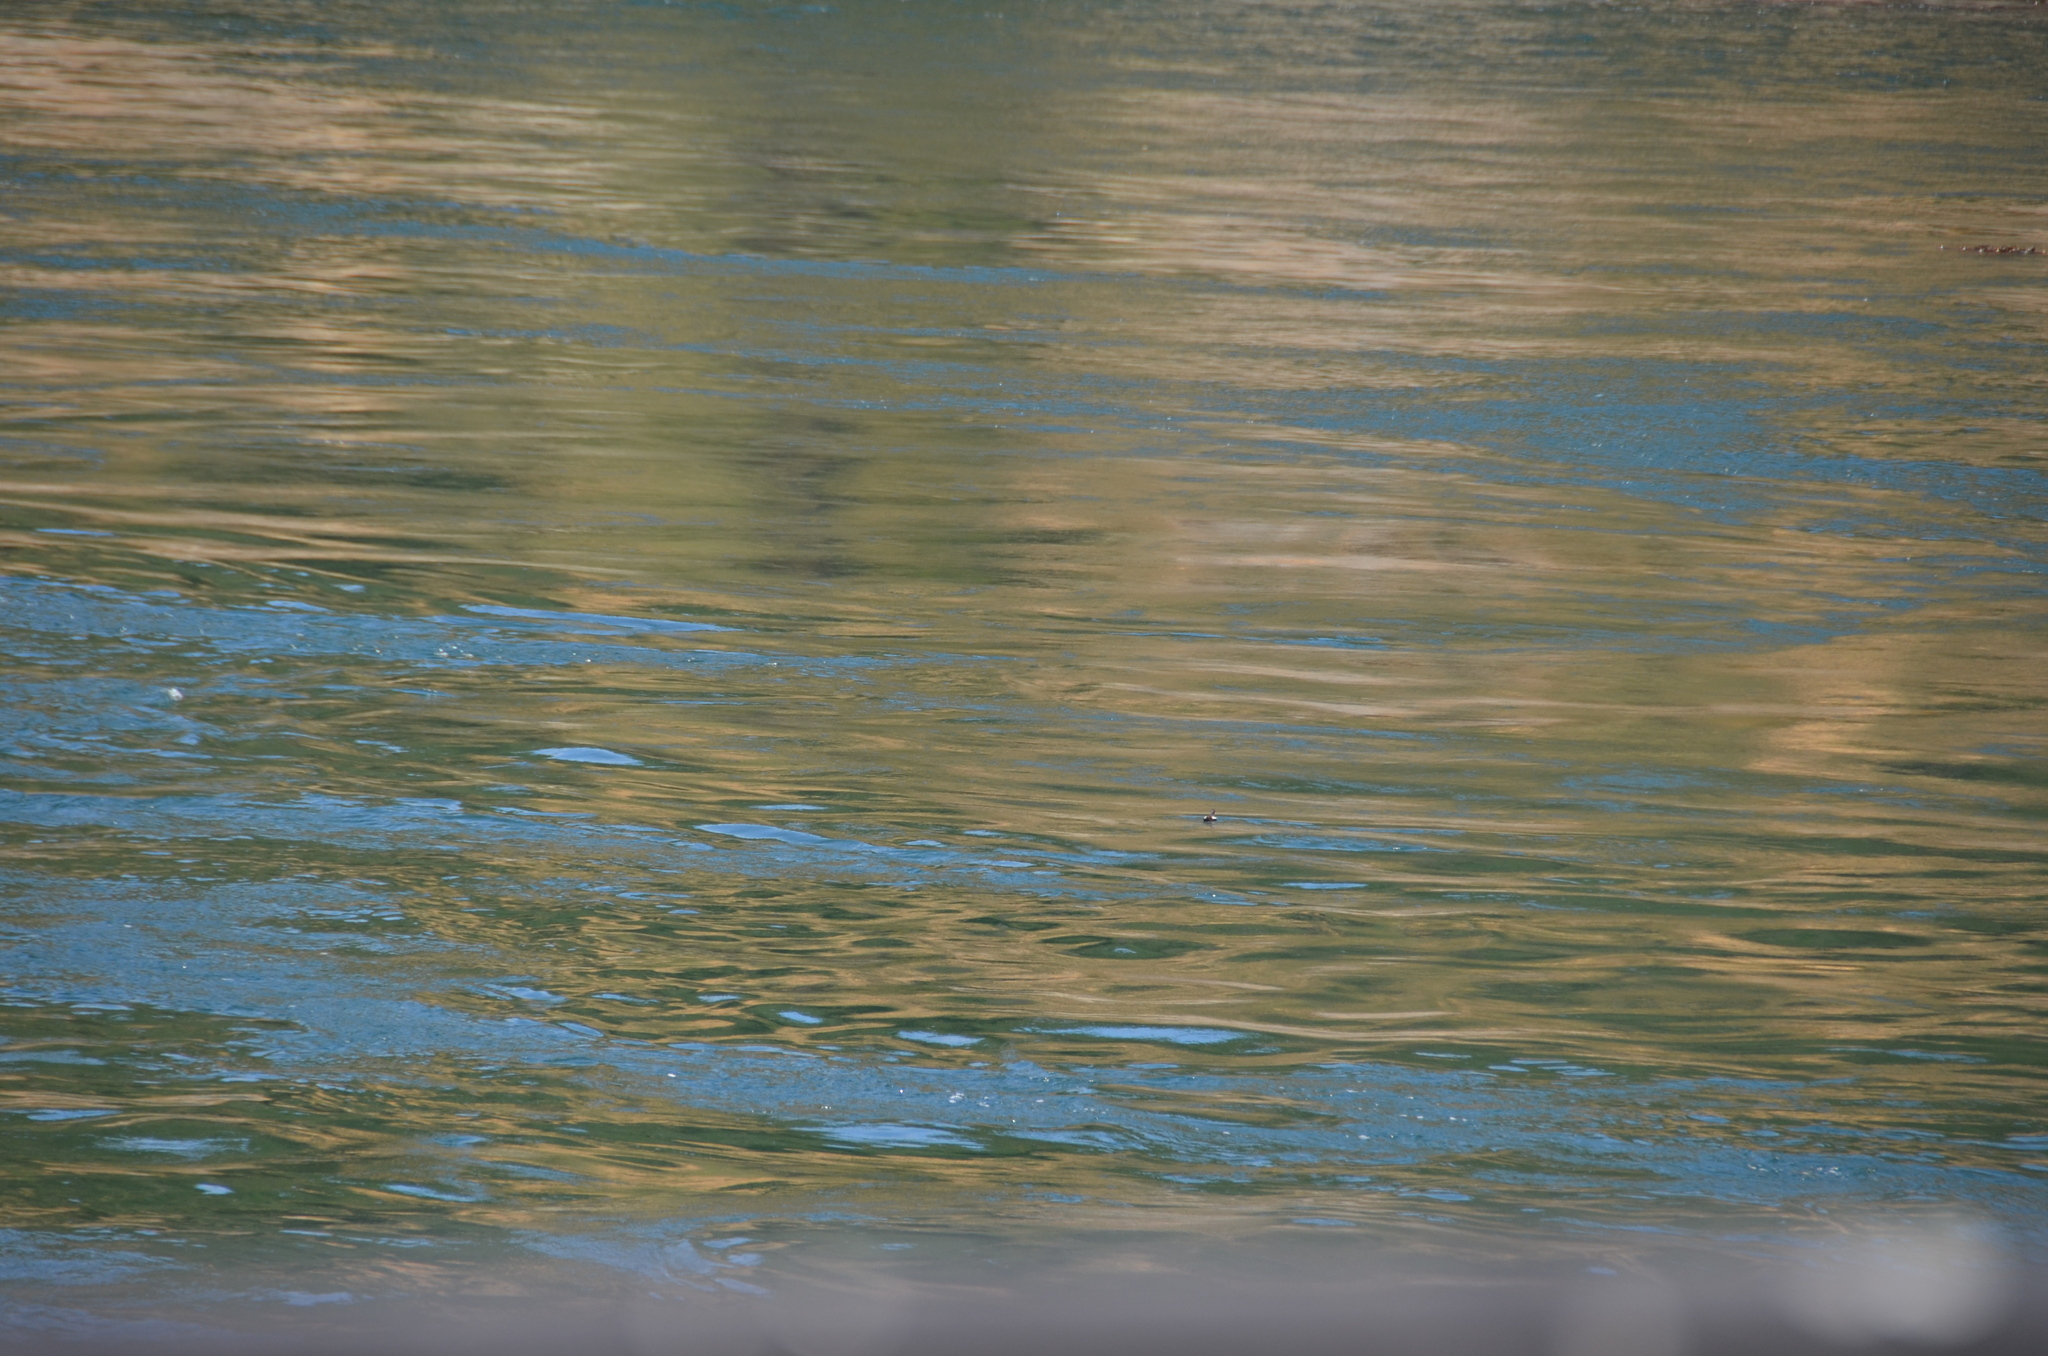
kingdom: Animalia
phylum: Chordata
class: Aves
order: Charadriiformes
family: Alcidae
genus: Cepphus
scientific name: Cepphus columba
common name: Pigeon guillemot
